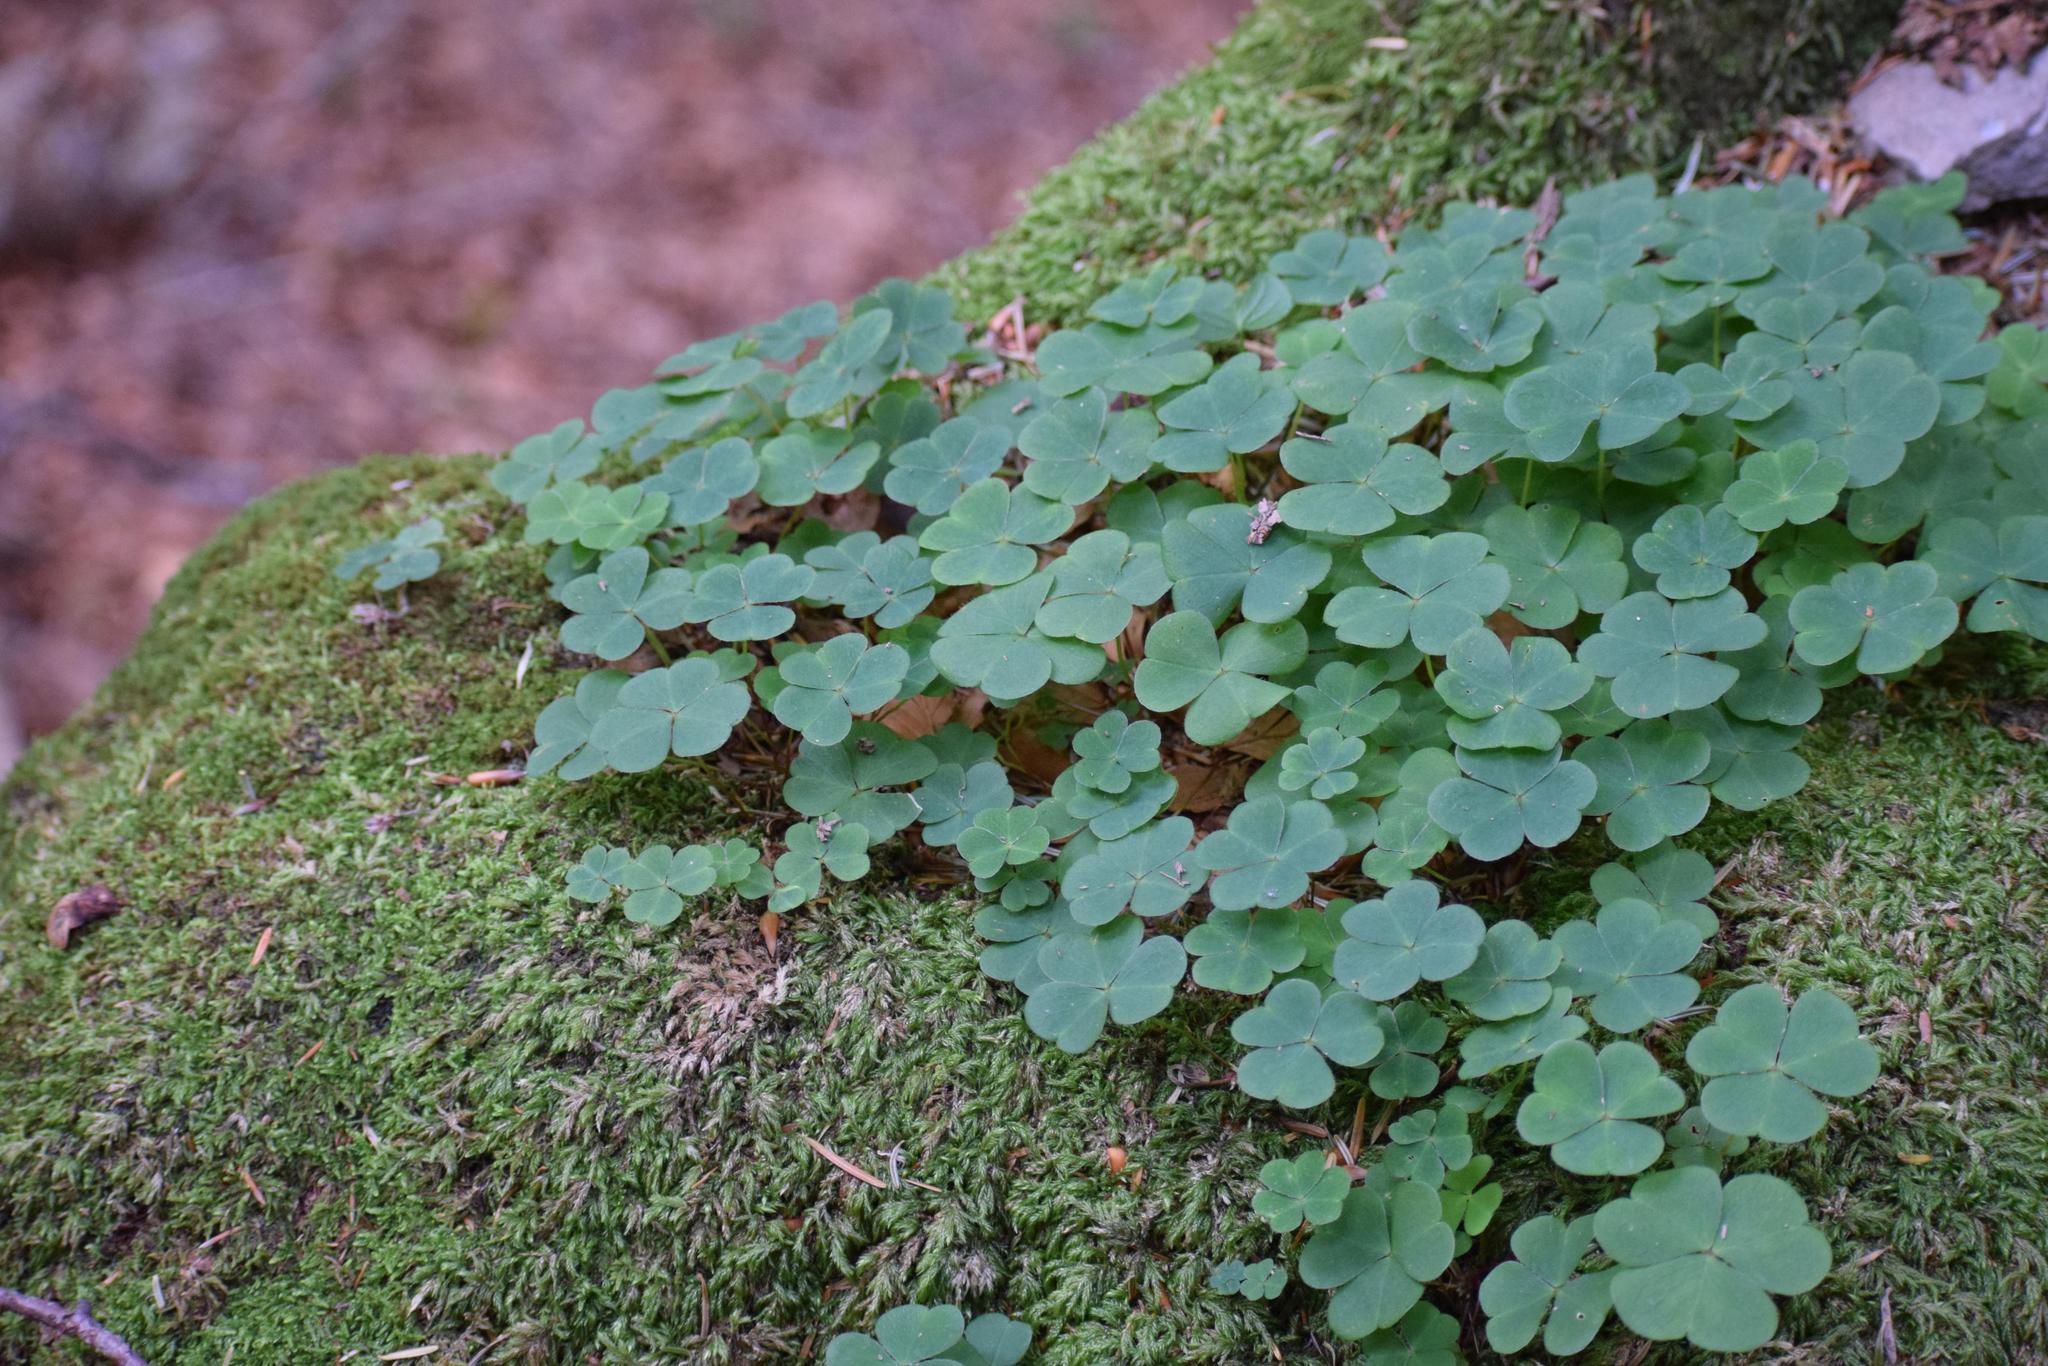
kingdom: Plantae
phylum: Tracheophyta
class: Magnoliopsida
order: Oxalidales
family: Oxalidaceae
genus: Oxalis
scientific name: Oxalis acetosella
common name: Wood-sorrel
